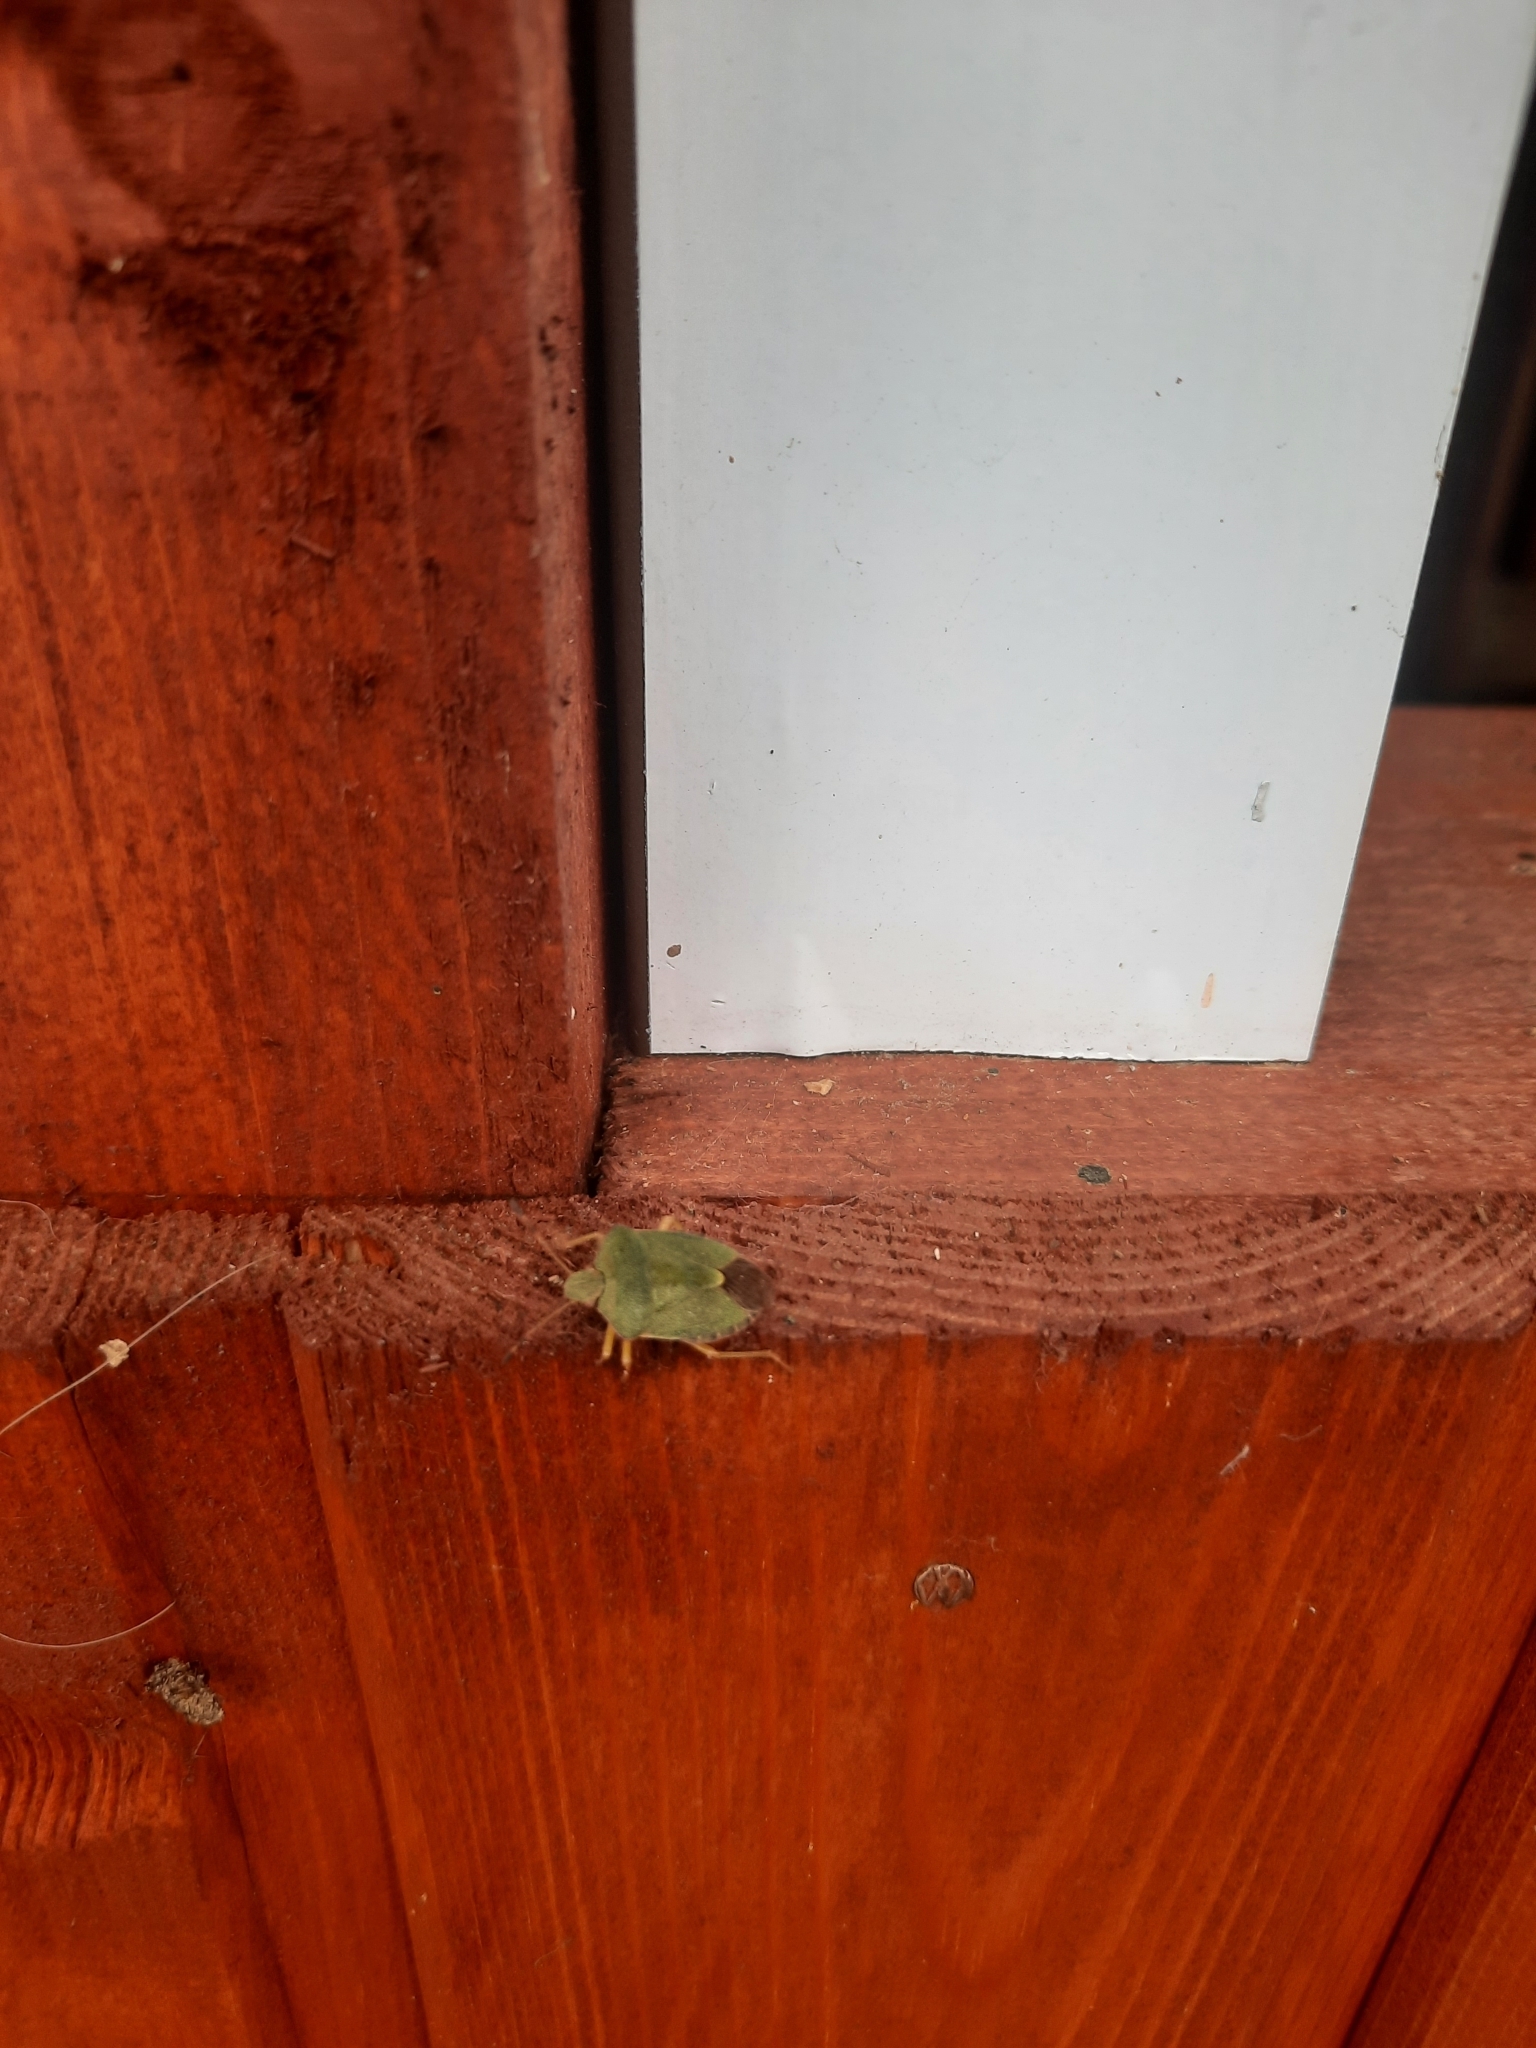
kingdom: Animalia
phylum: Arthropoda
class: Insecta
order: Hemiptera
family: Pentatomidae
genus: Palomena
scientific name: Palomena prasina
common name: Green shieldbug
